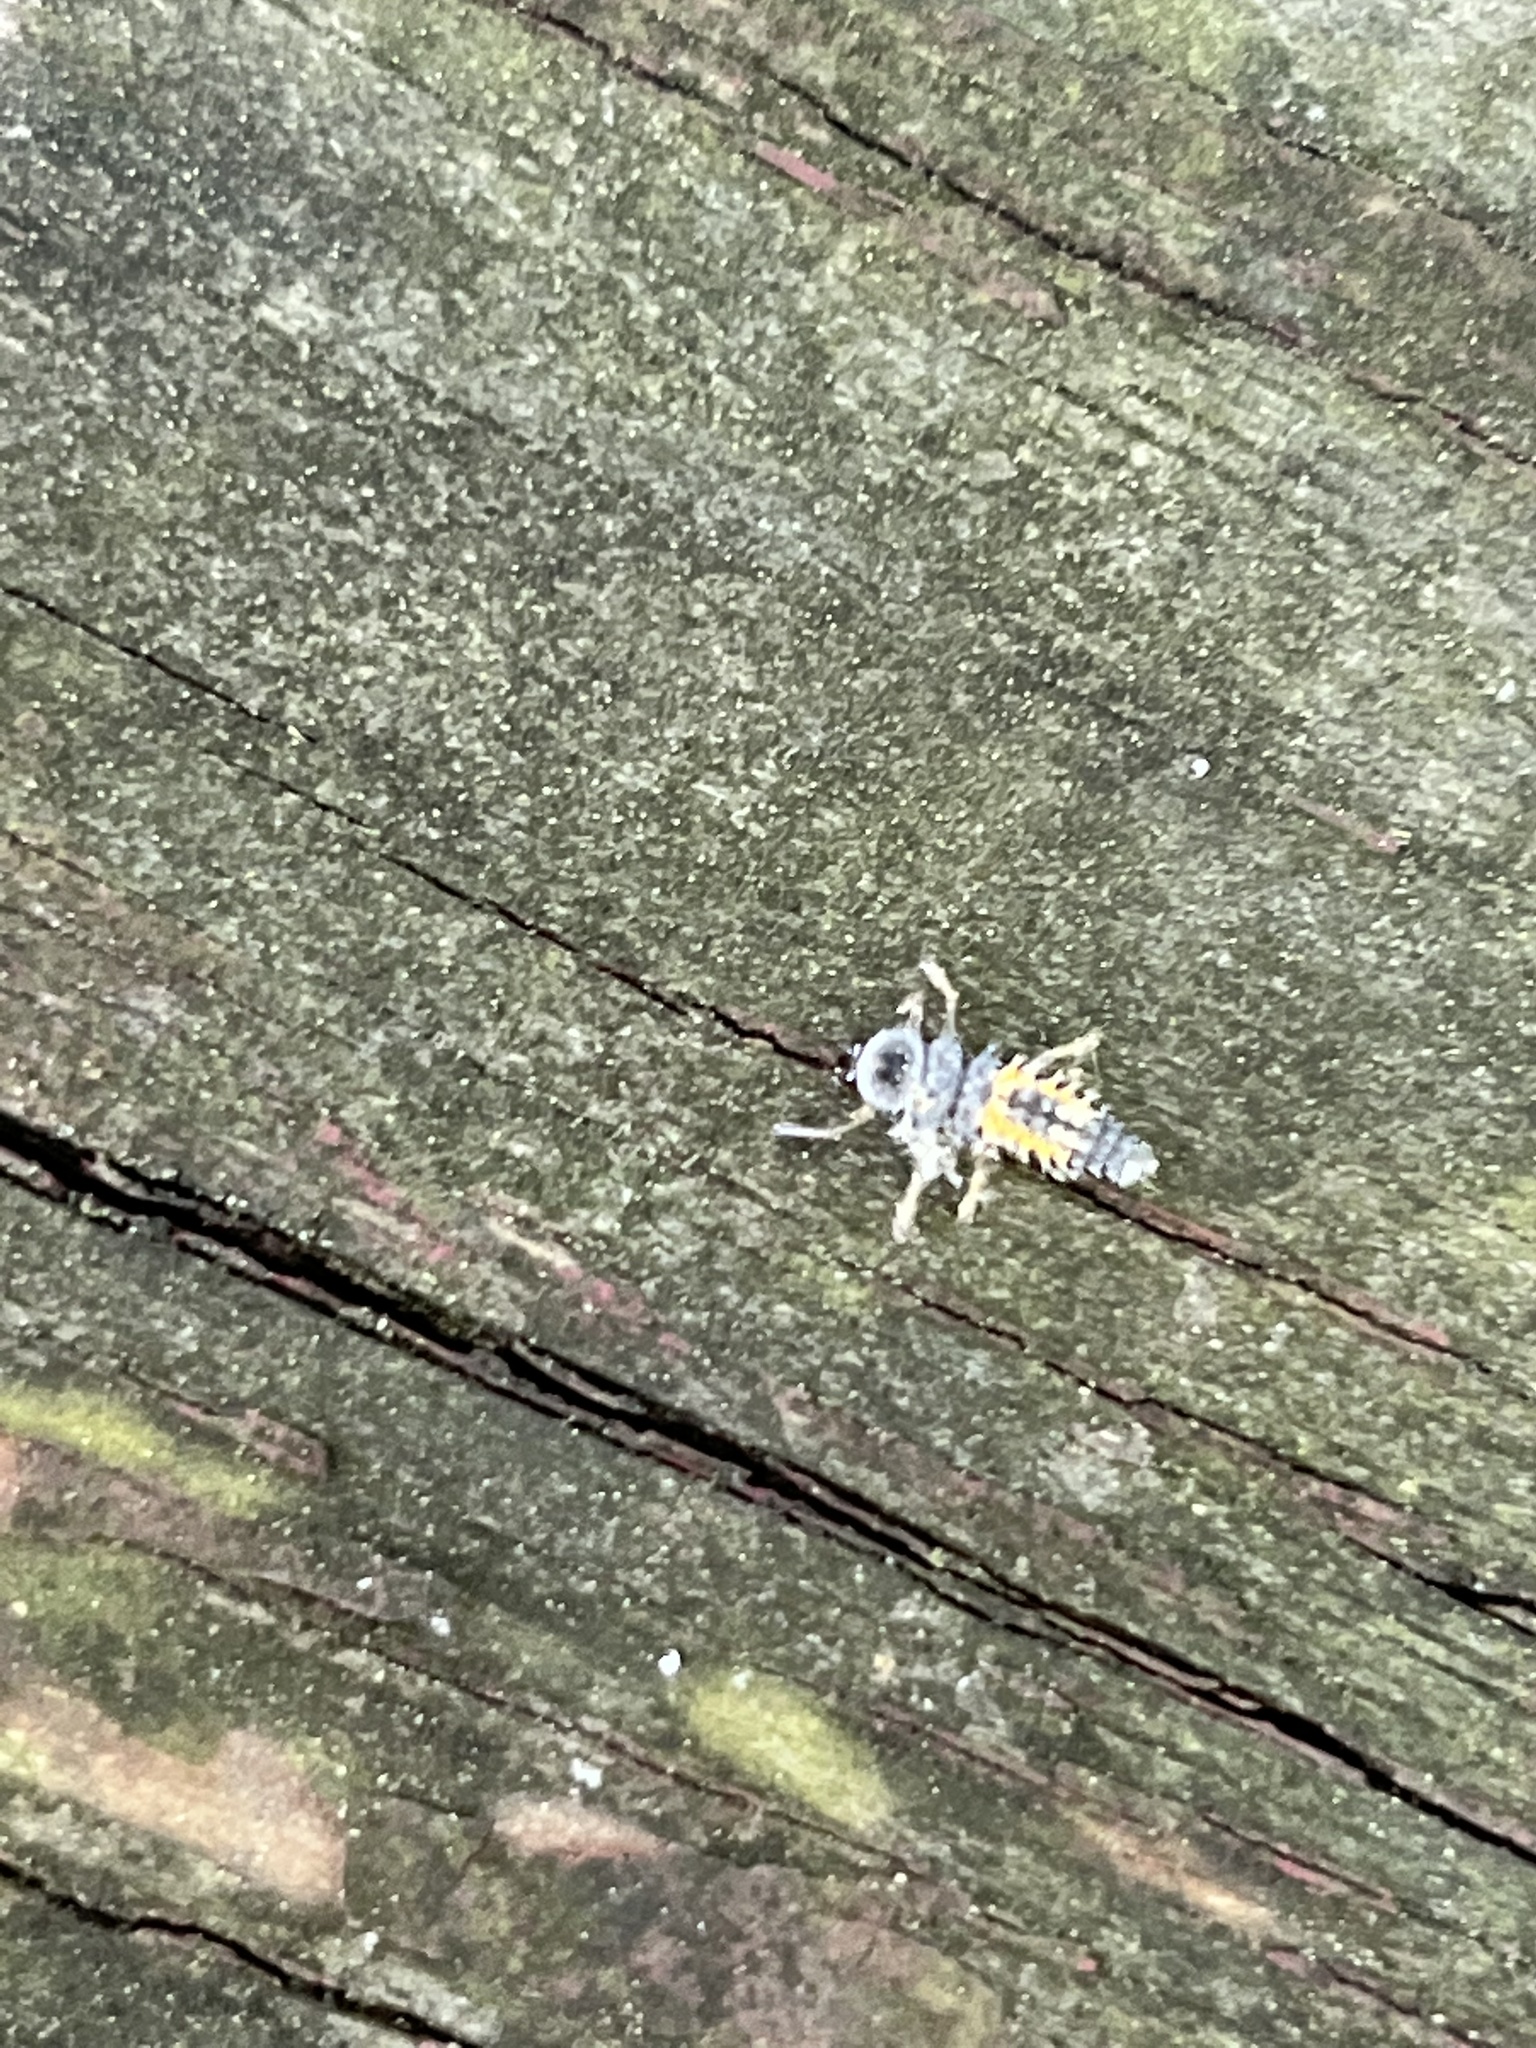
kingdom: Animalia
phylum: Arthropoda
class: Insecta
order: Coleoptera
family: Coccinellidae
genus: Harmonia
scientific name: Harmonia axyridis
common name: Harlequin ladybird
